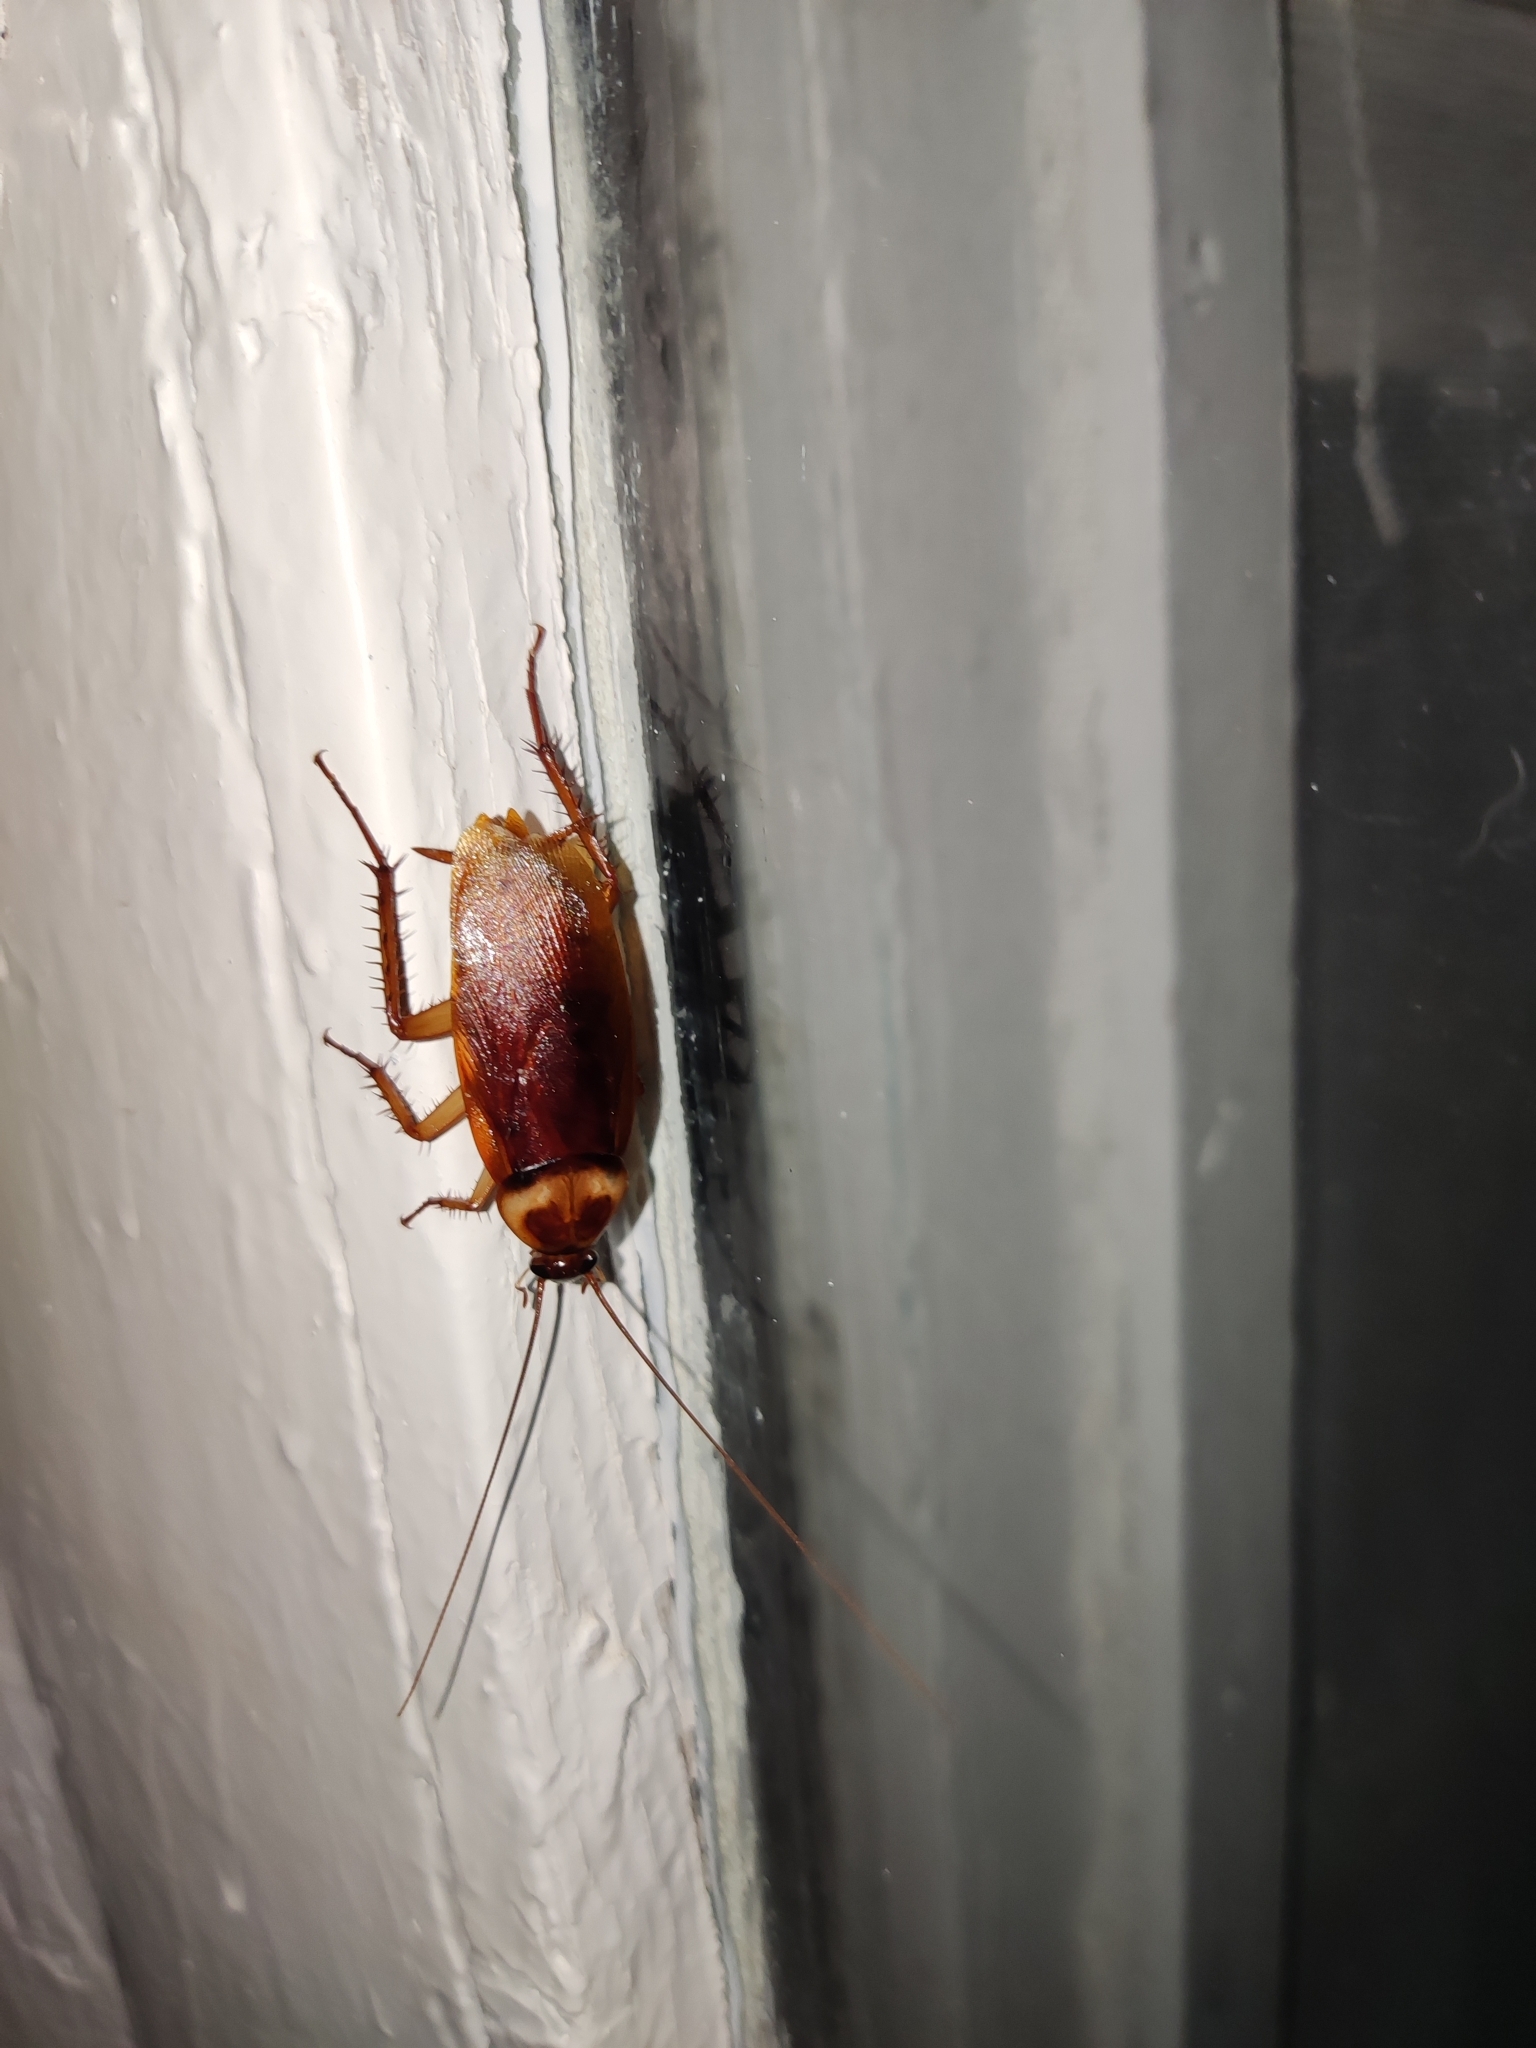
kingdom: Animalia
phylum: Arthropoda
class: Insecta
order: Blattodea
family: Blattidae
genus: Periplaneta
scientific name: Periplaneta americana
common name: American cockroach
